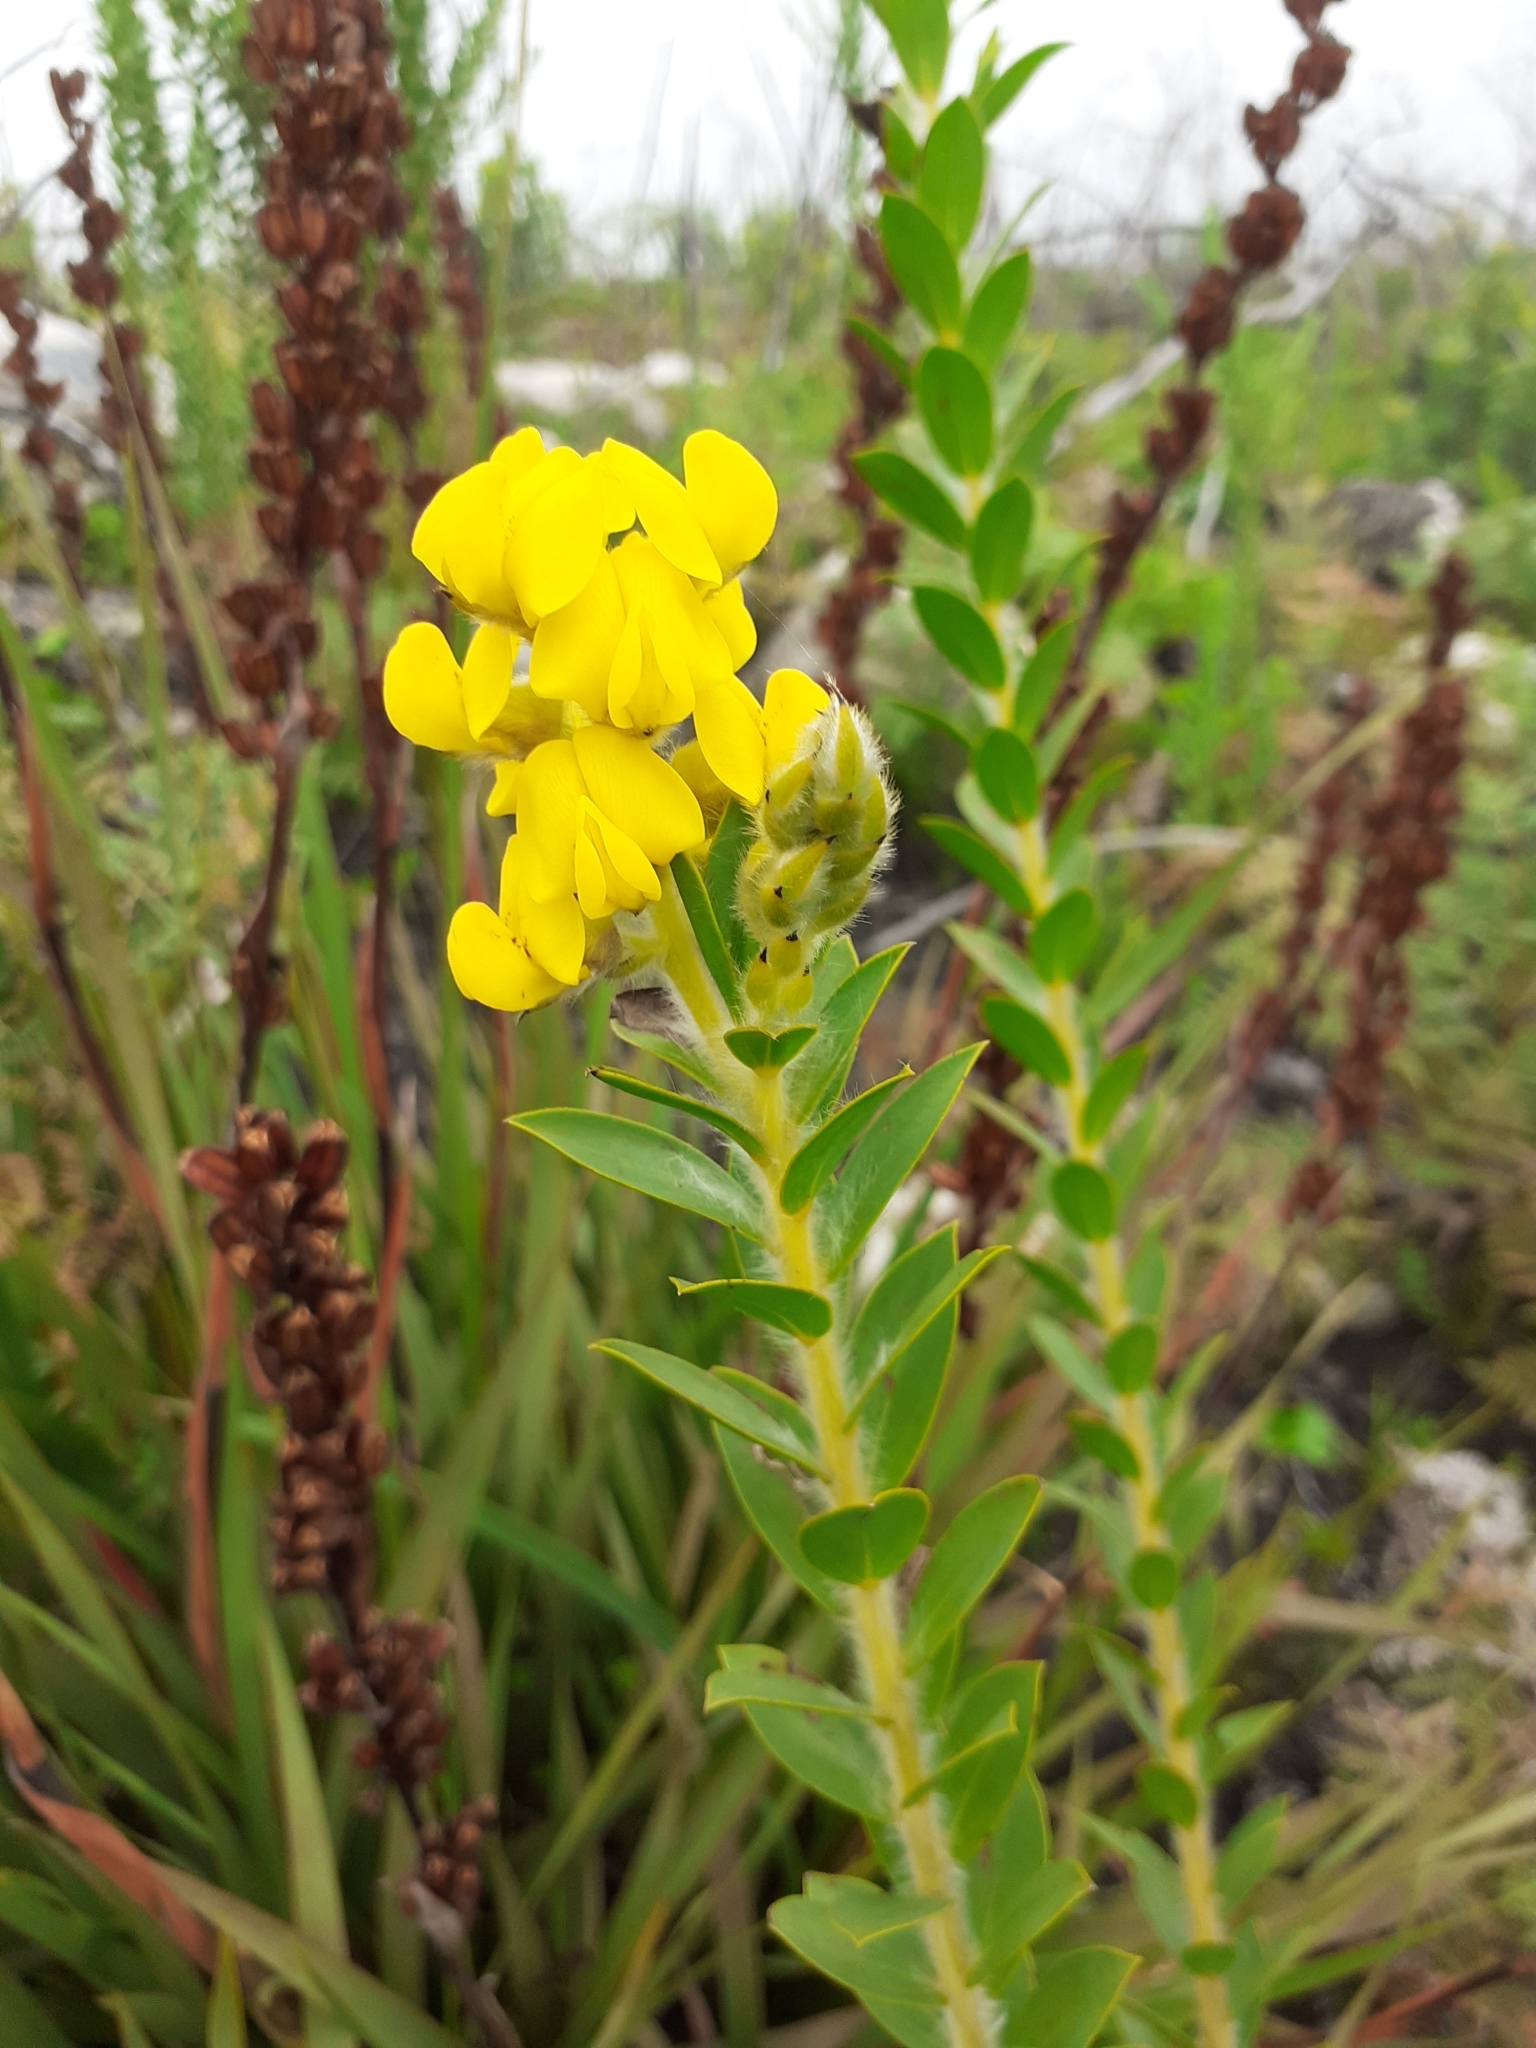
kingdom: Plantae
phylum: Tracheophyta
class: Magnoliopsida
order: Fabales
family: Fabaceae
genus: Liparia
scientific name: Liparia hirsuta
